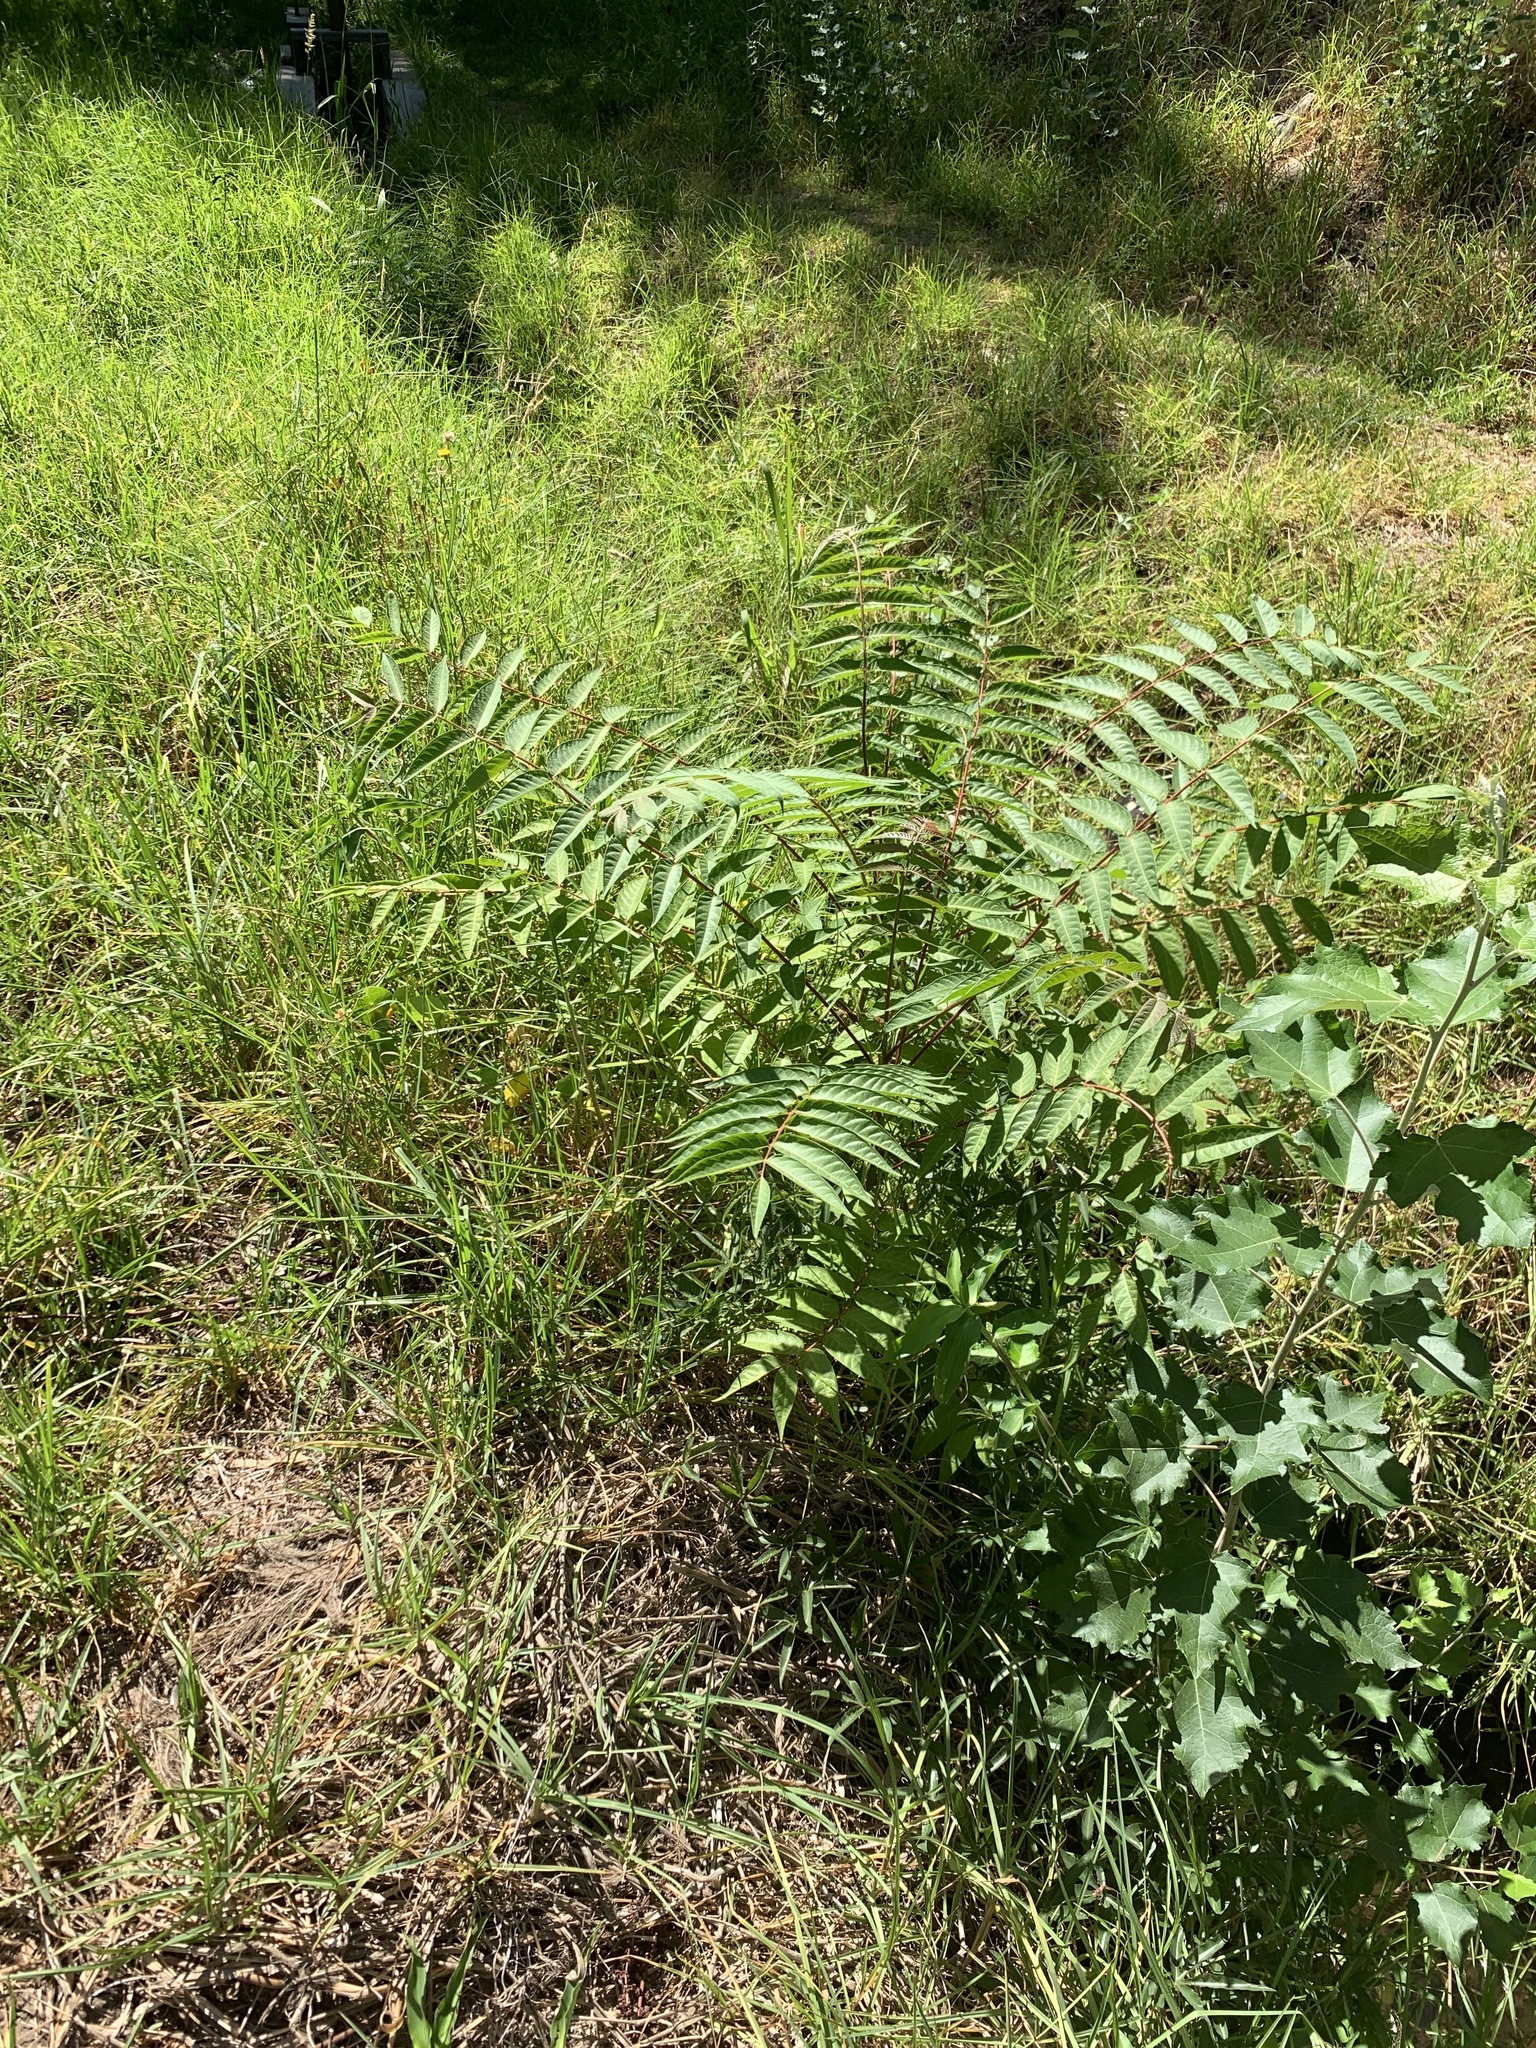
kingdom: Plantae
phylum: Tracheophyta
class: Magnoliopsida
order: Sapindales
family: Simaroubaceae
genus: Ailanthus
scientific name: Ailanthus altissima
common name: Tree-of-heaven
